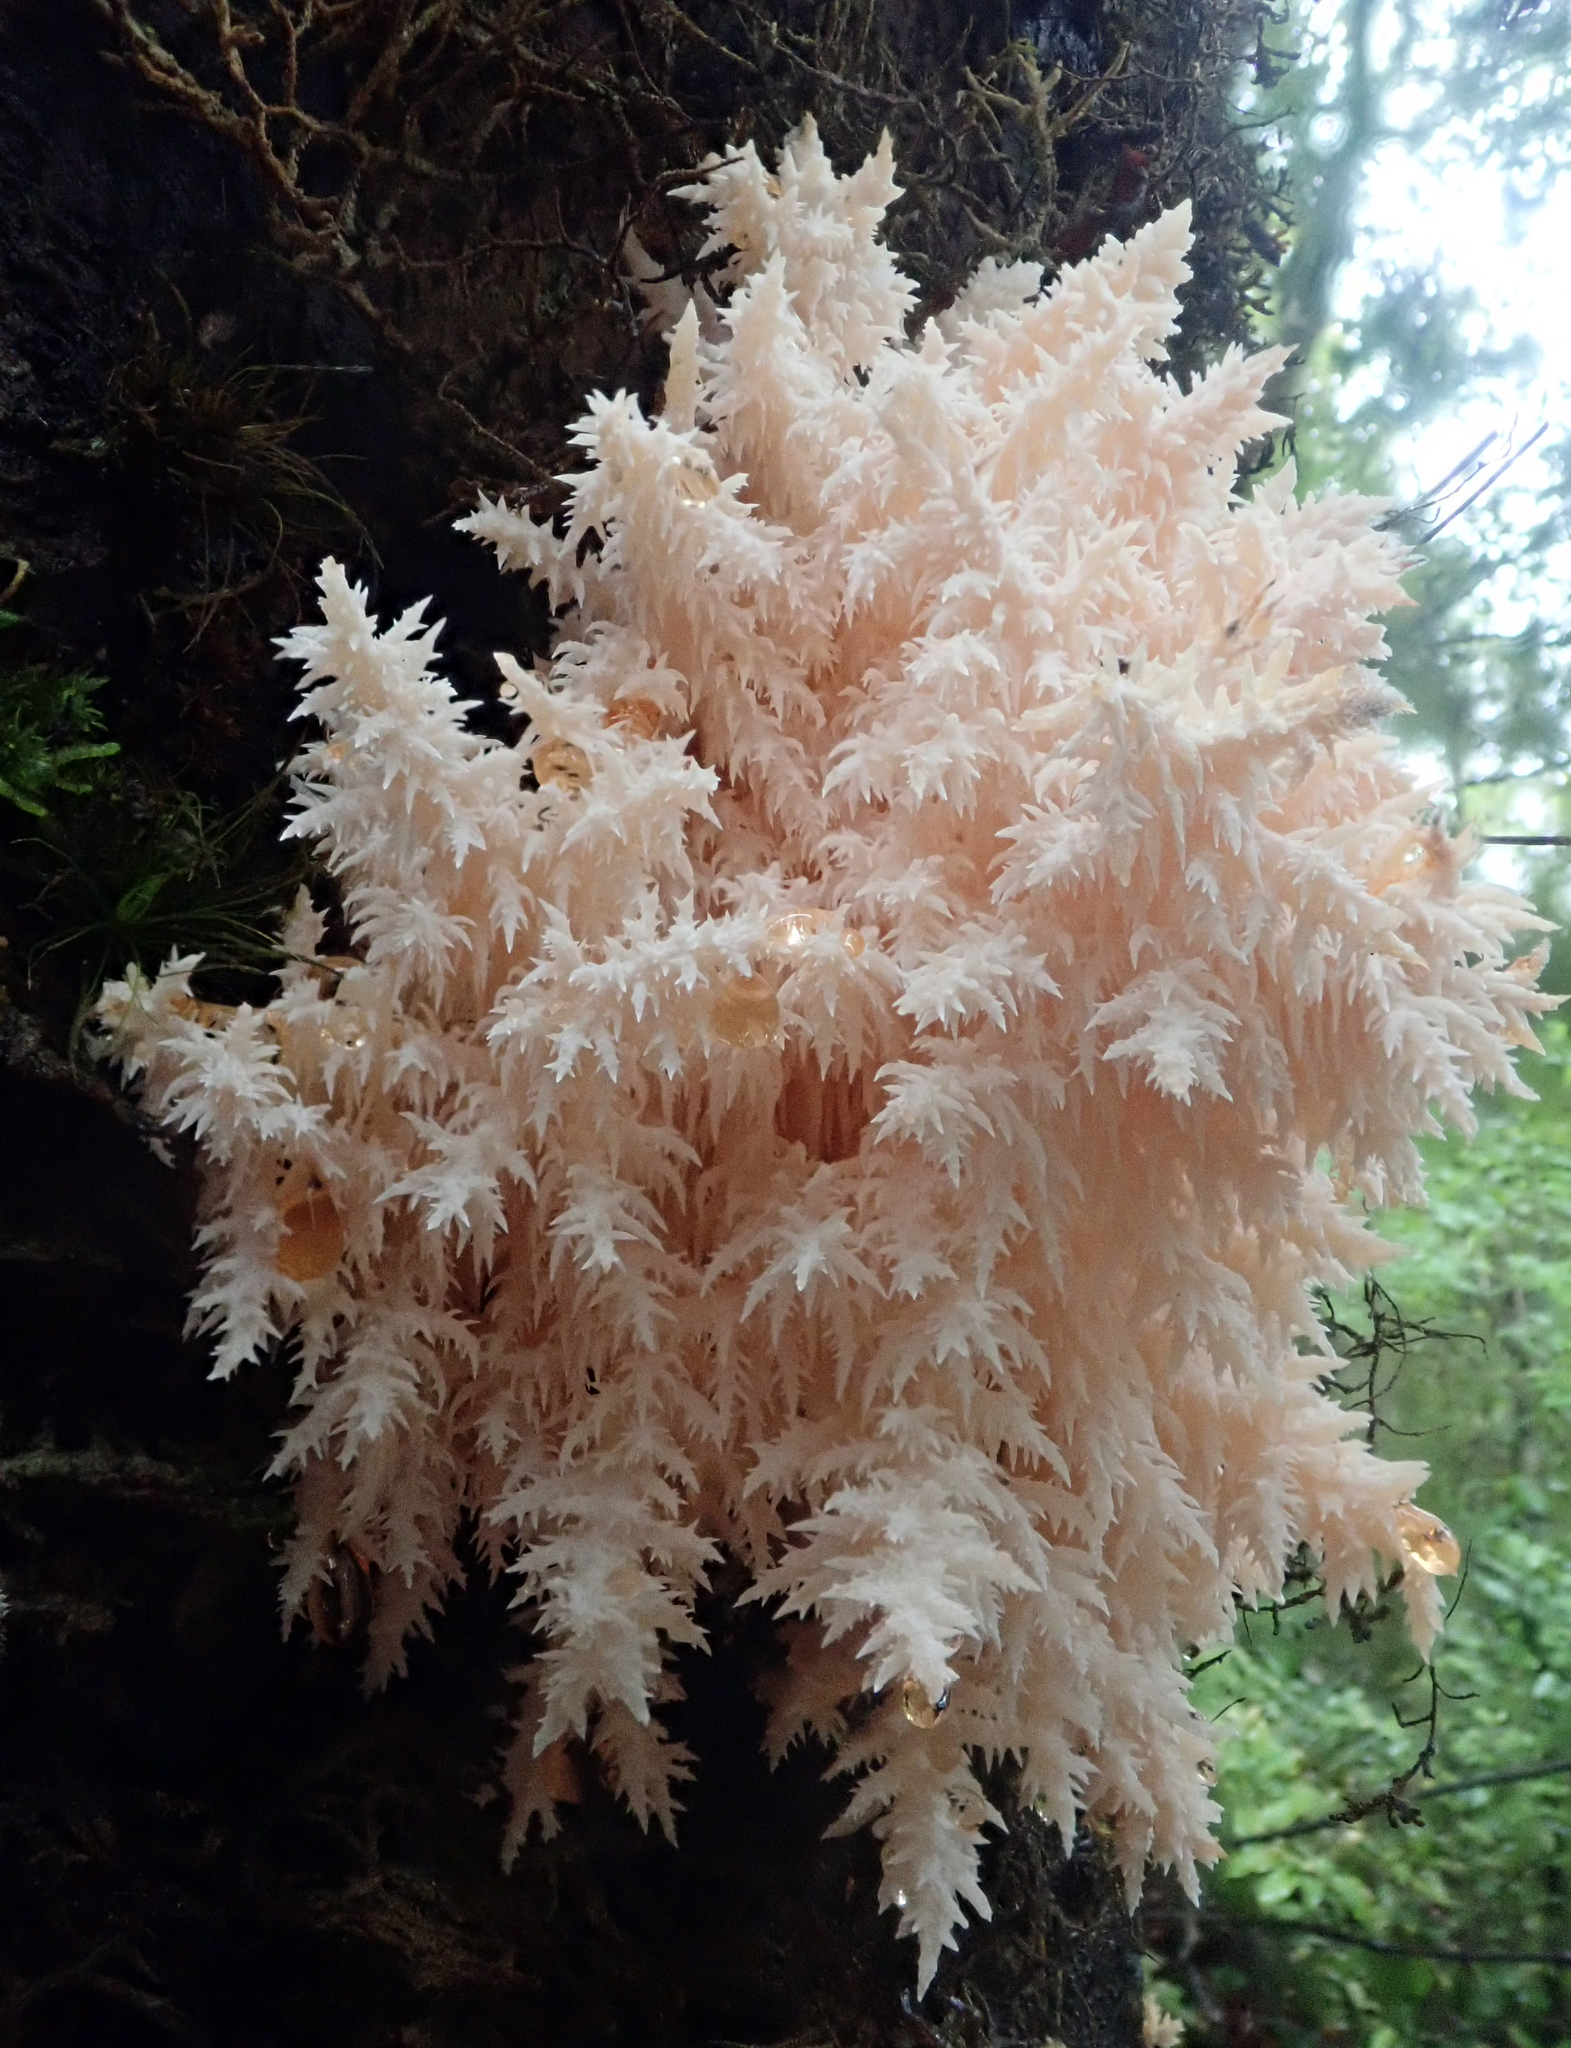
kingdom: Fungi
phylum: Basidiomycota
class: Agaricomycetes
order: Russulales
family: Hericiaceae
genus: Hericium
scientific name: Hericium novae-zealandiae
